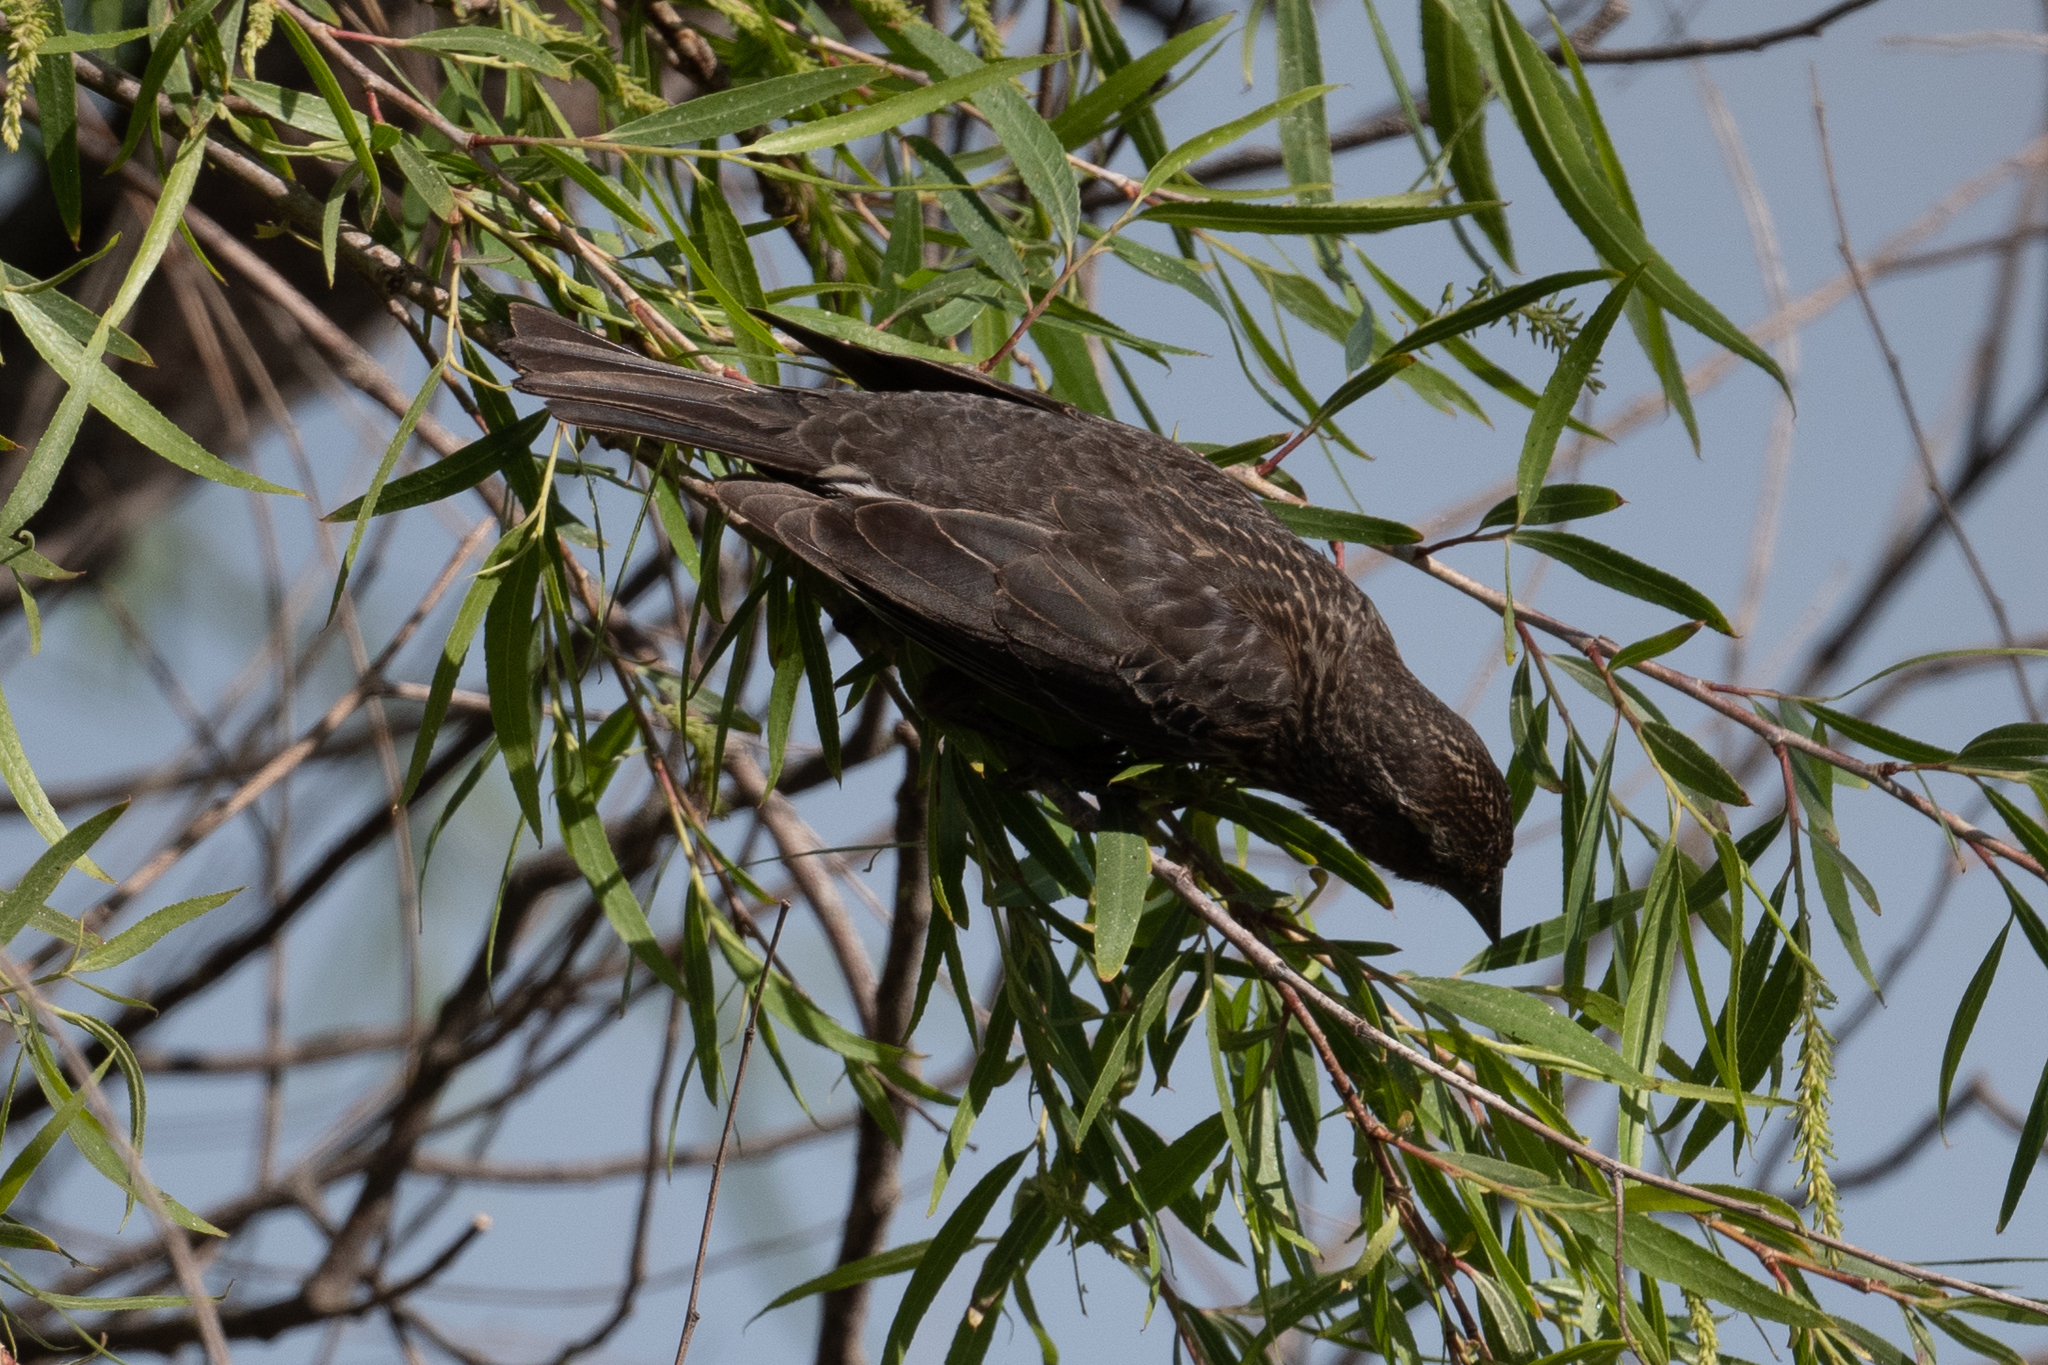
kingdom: Animalia
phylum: Chordata
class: Aves
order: Passeriformes
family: Icteridae
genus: Agelaius
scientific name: Agelaius phoeniceus
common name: Red-winged blackbird
